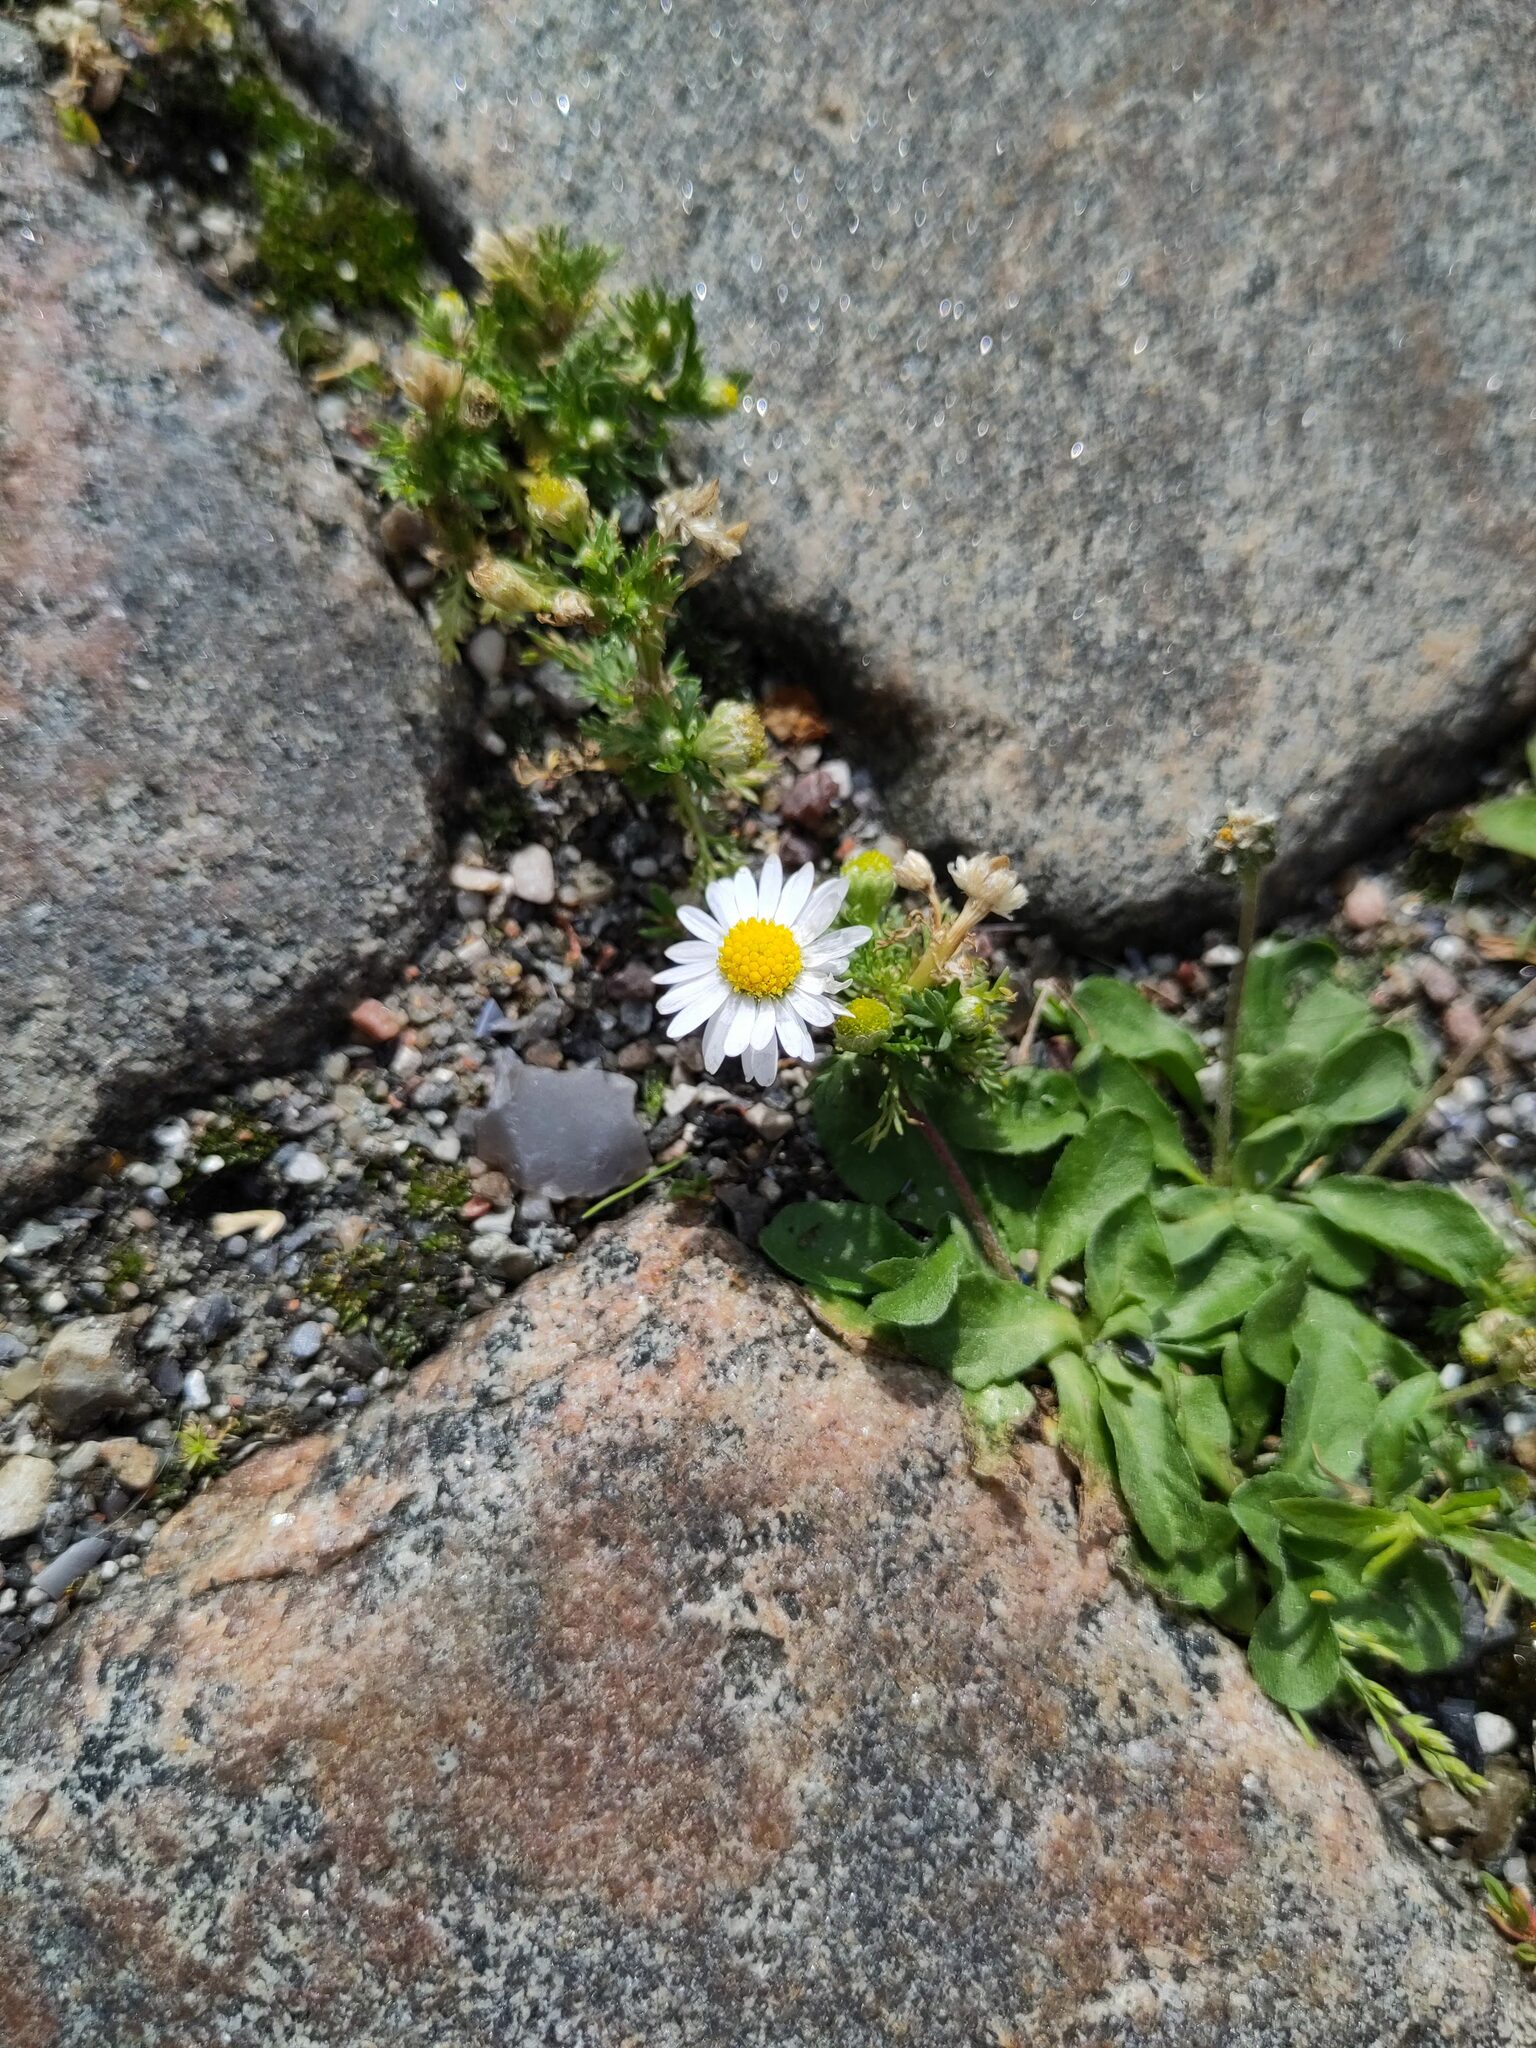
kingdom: Plantae
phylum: Tracheophyta
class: Magnoliopsida
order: Asterales
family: Asteraceae
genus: Bellis
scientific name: Bellis perennis
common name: Lawndaisy
